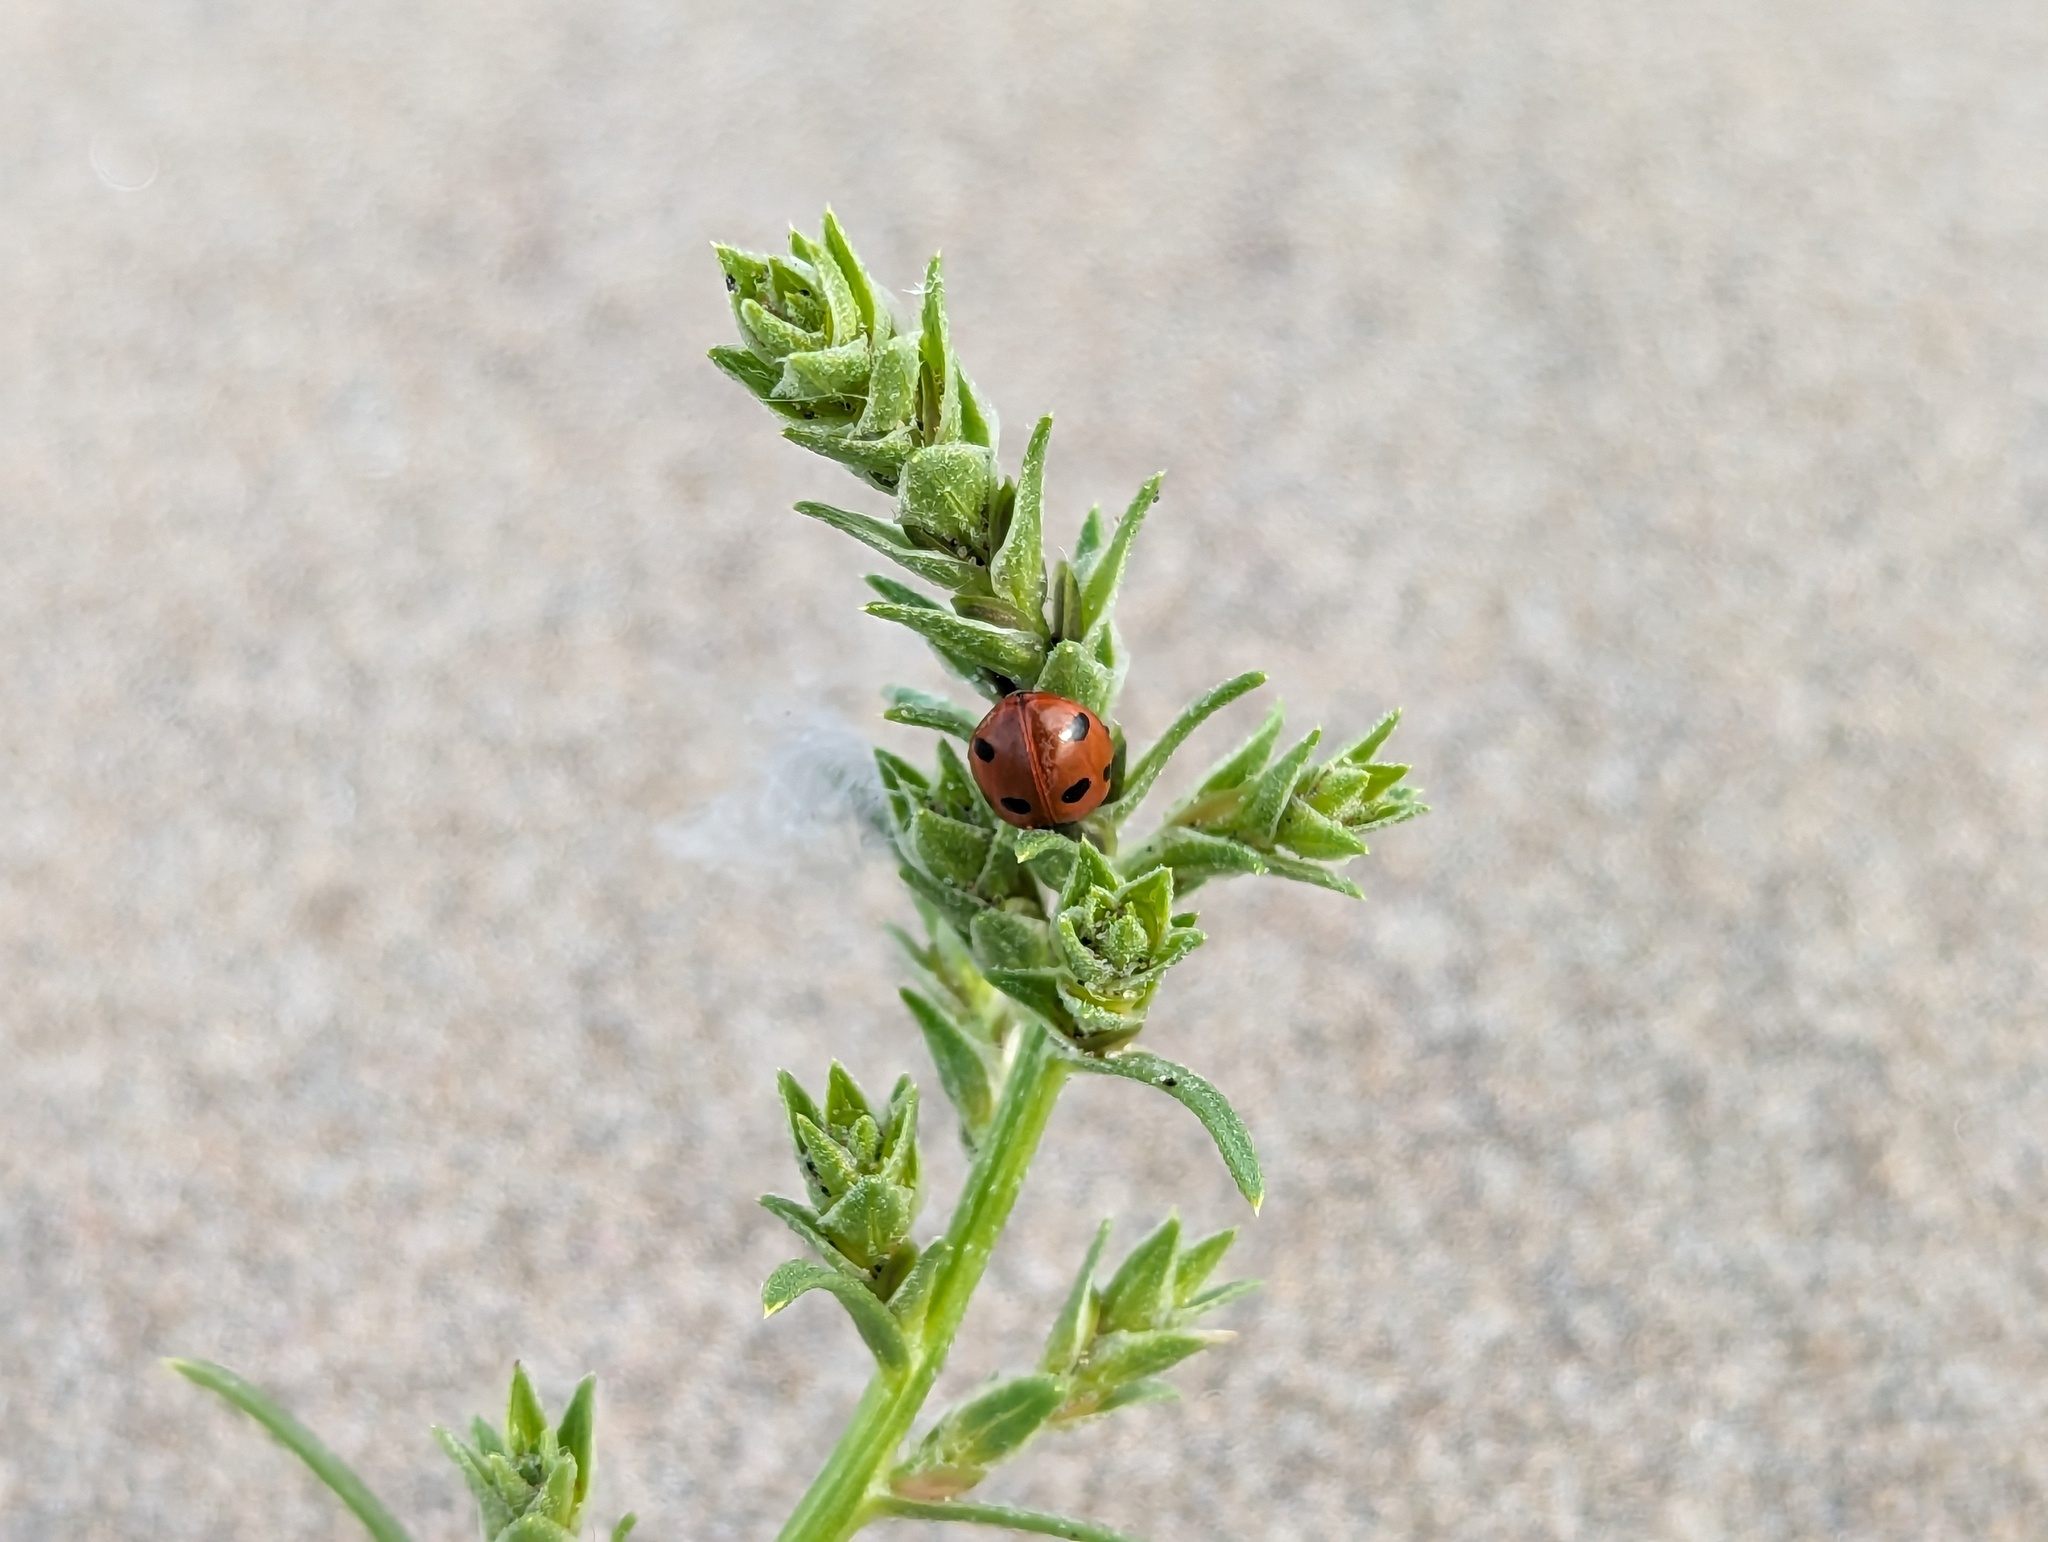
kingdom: Animalia
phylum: Arthropoda
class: Insecta
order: Coleoptera
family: Coccinellidae
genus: Coccinella
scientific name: Coccinella septempunctata
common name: Sevenspotted lady beetle
